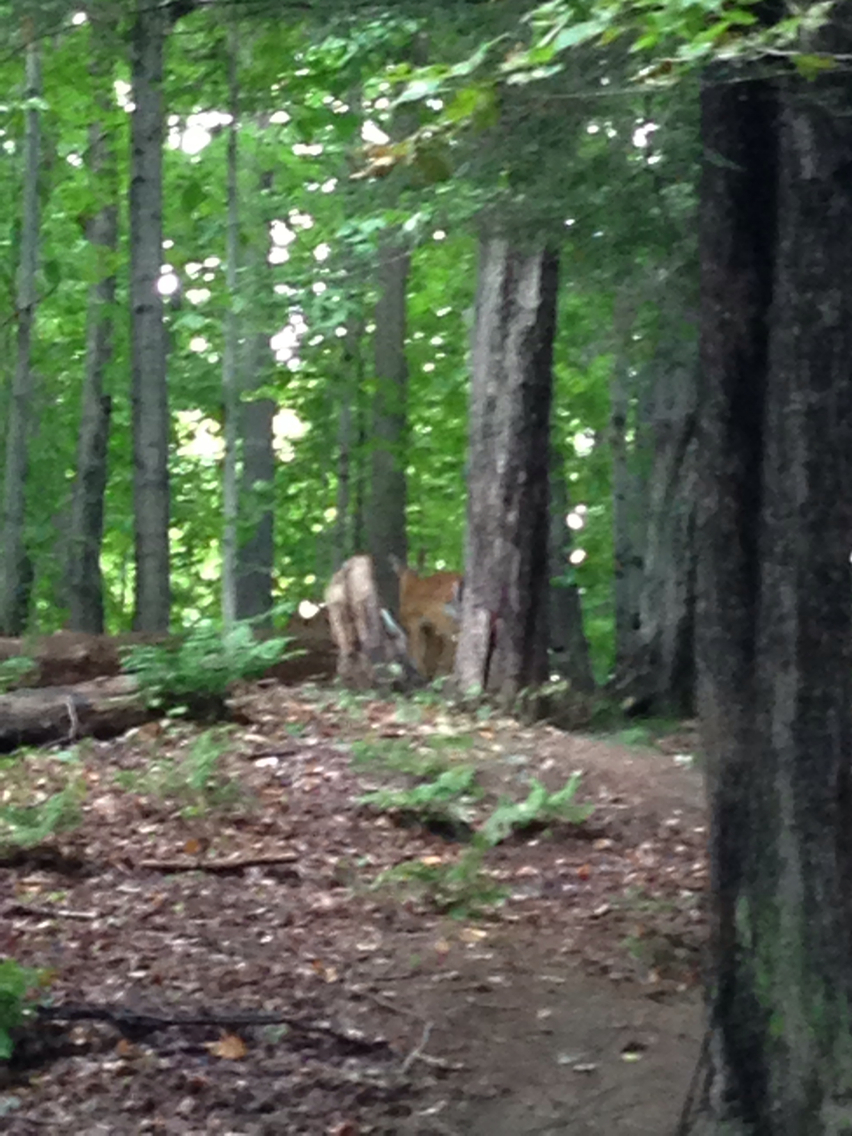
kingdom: Animalia
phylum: Chordata
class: Mammalia
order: Artiodactyla
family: Cervidae
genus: Odocoileus
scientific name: Odocoileus virginianus
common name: White-tailed deer
